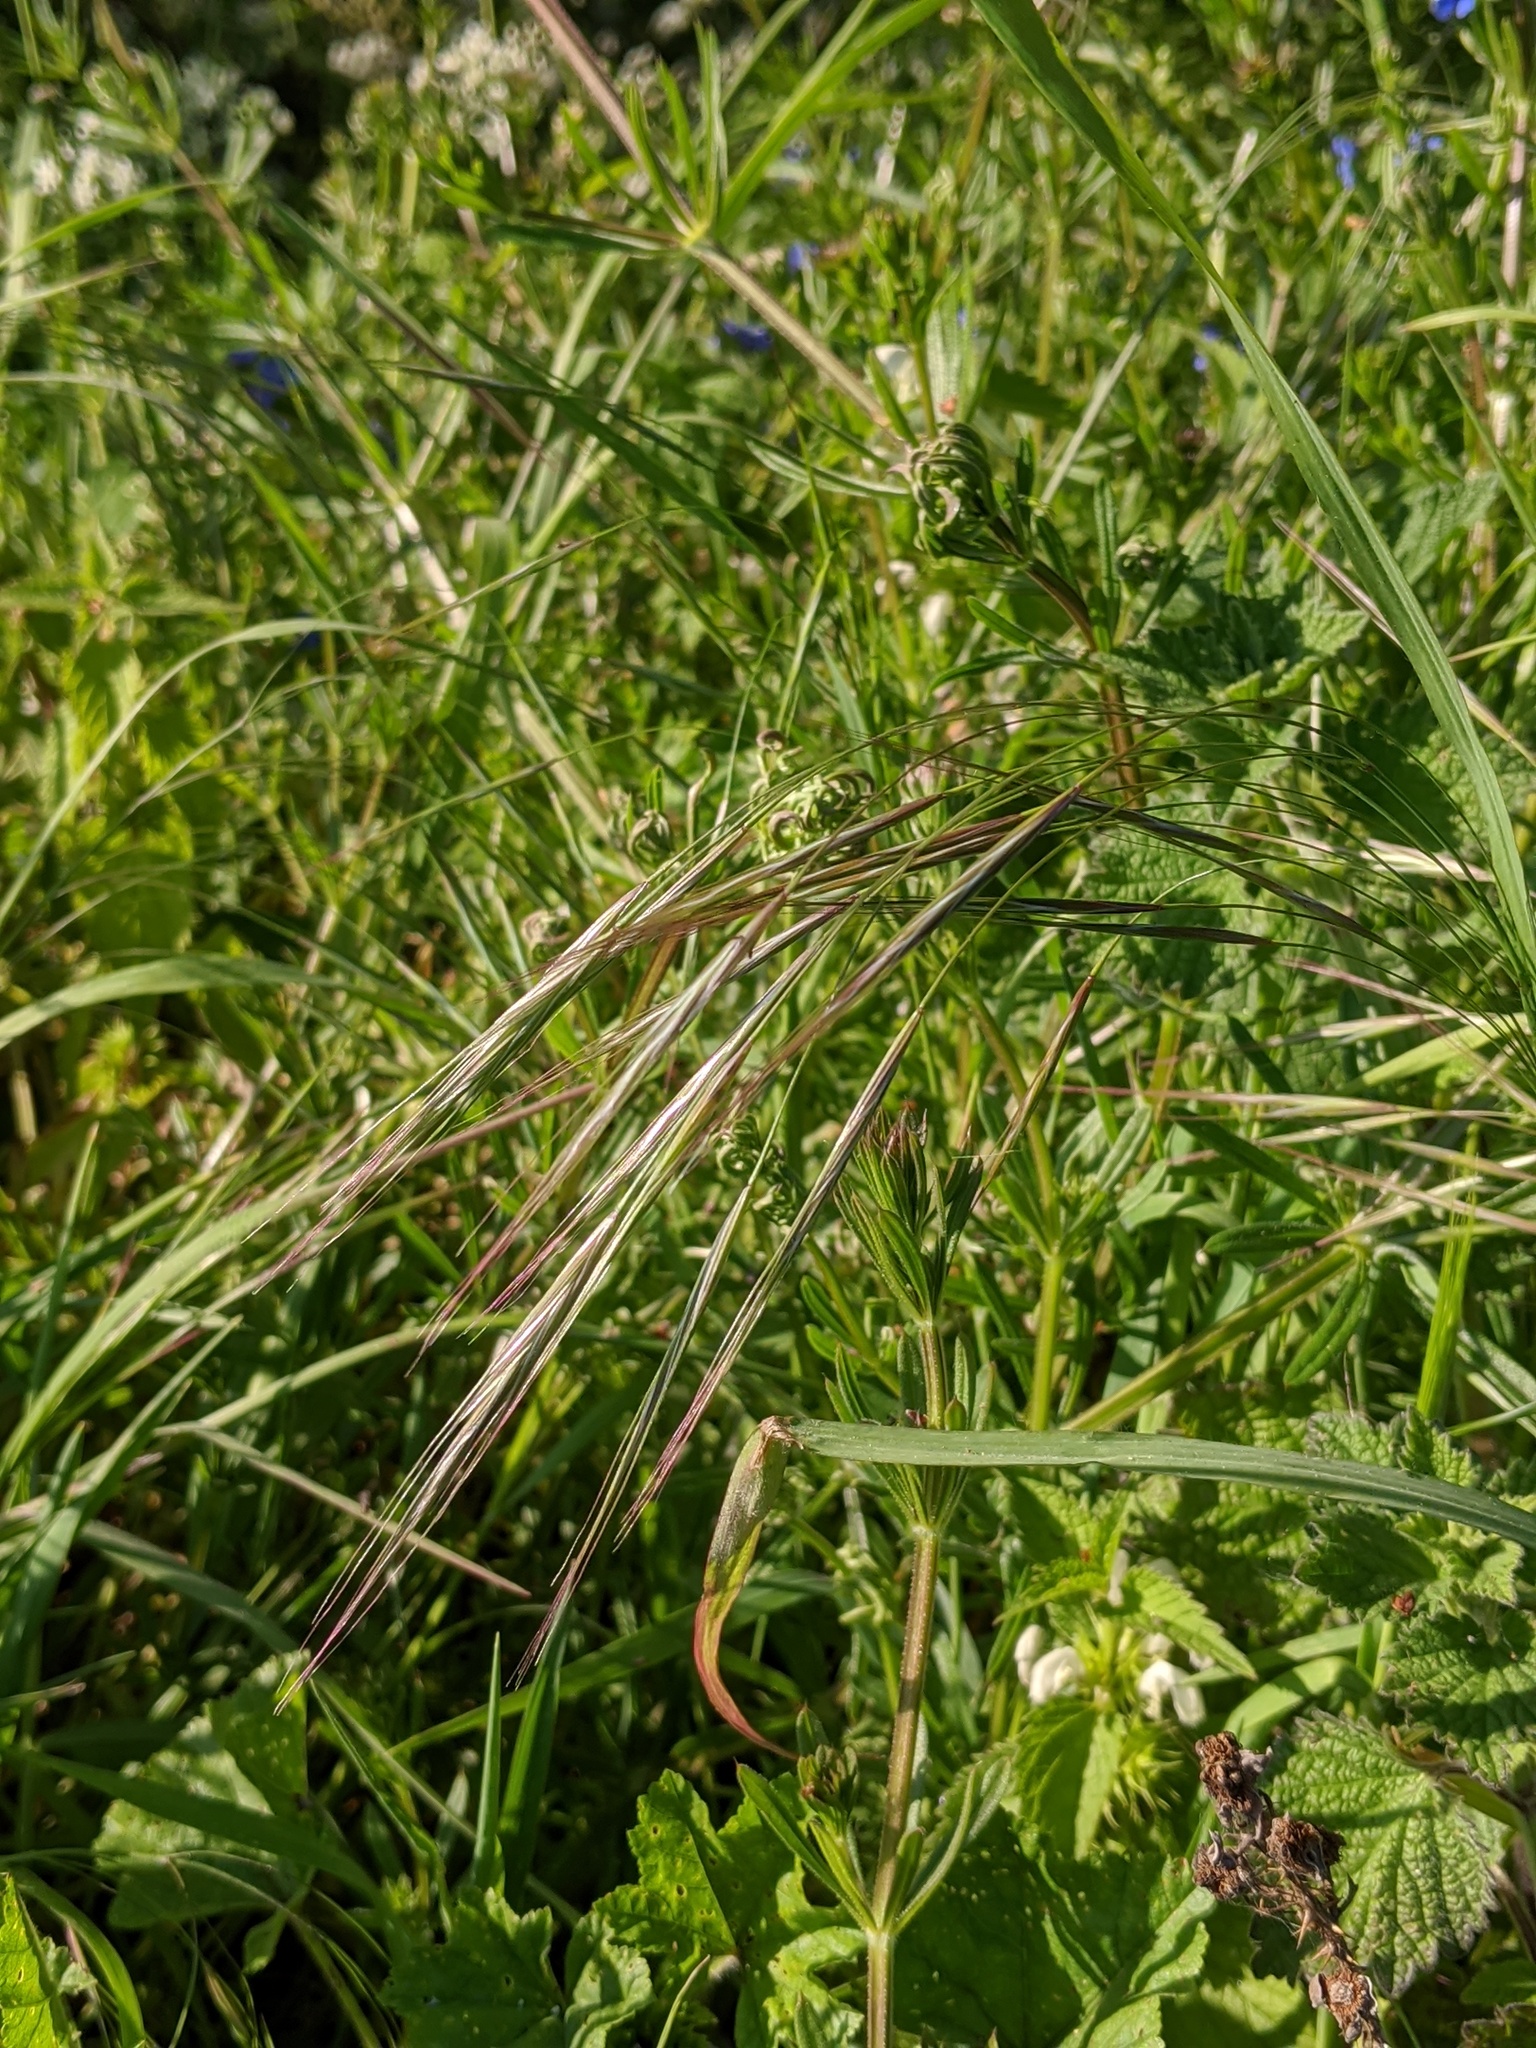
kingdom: Plantae
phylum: Tracheophyta
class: Liliopsida
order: Poales
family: Poaceae
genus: Bromus
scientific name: Bromus sterilis
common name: Poverty brome
